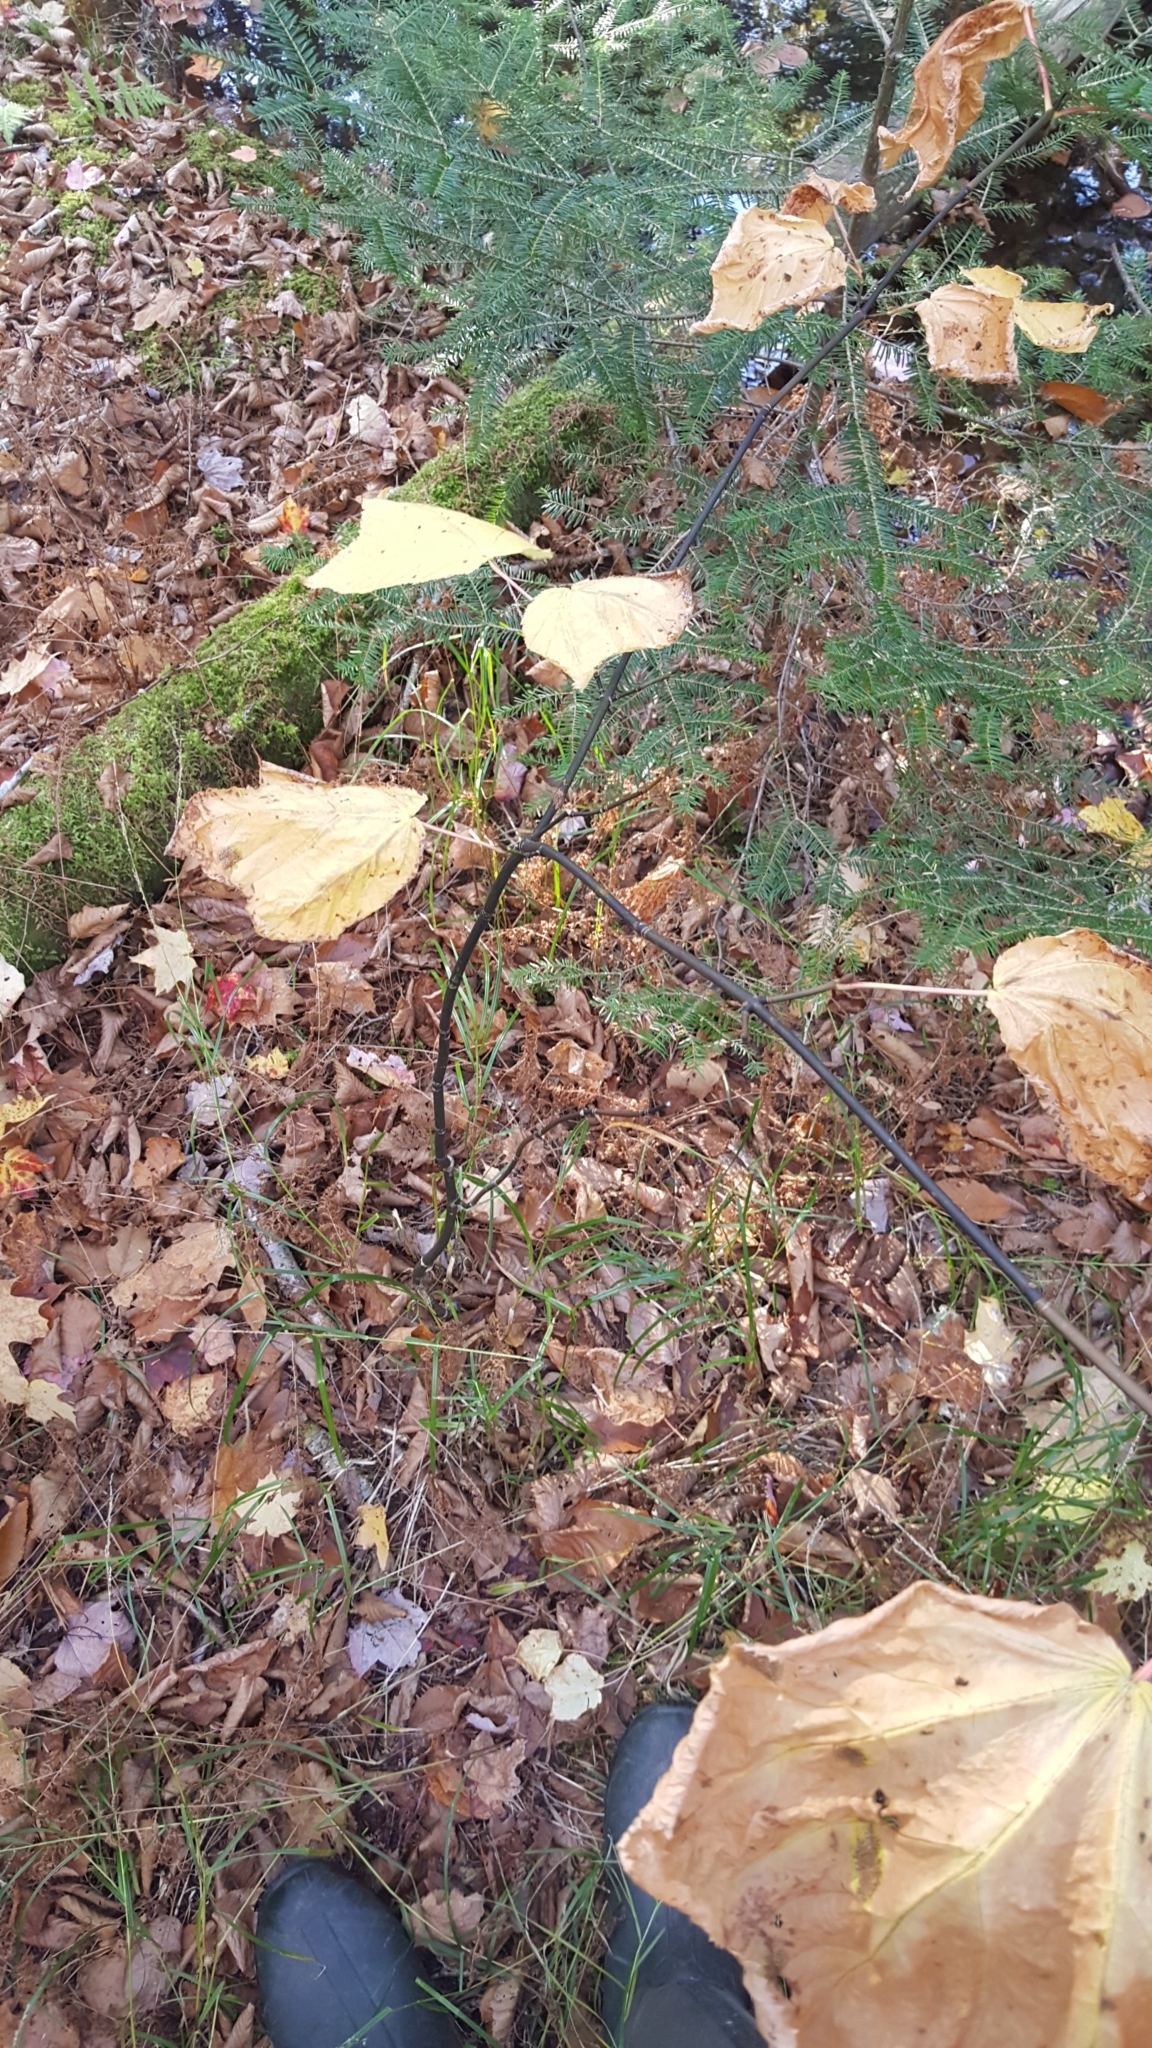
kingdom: Plantae
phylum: Tracheophyta
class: Magnoliopsida
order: Sapindales
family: Sapindaceae
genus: Acer
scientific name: Acer pensylvanicum
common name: Moosewood
